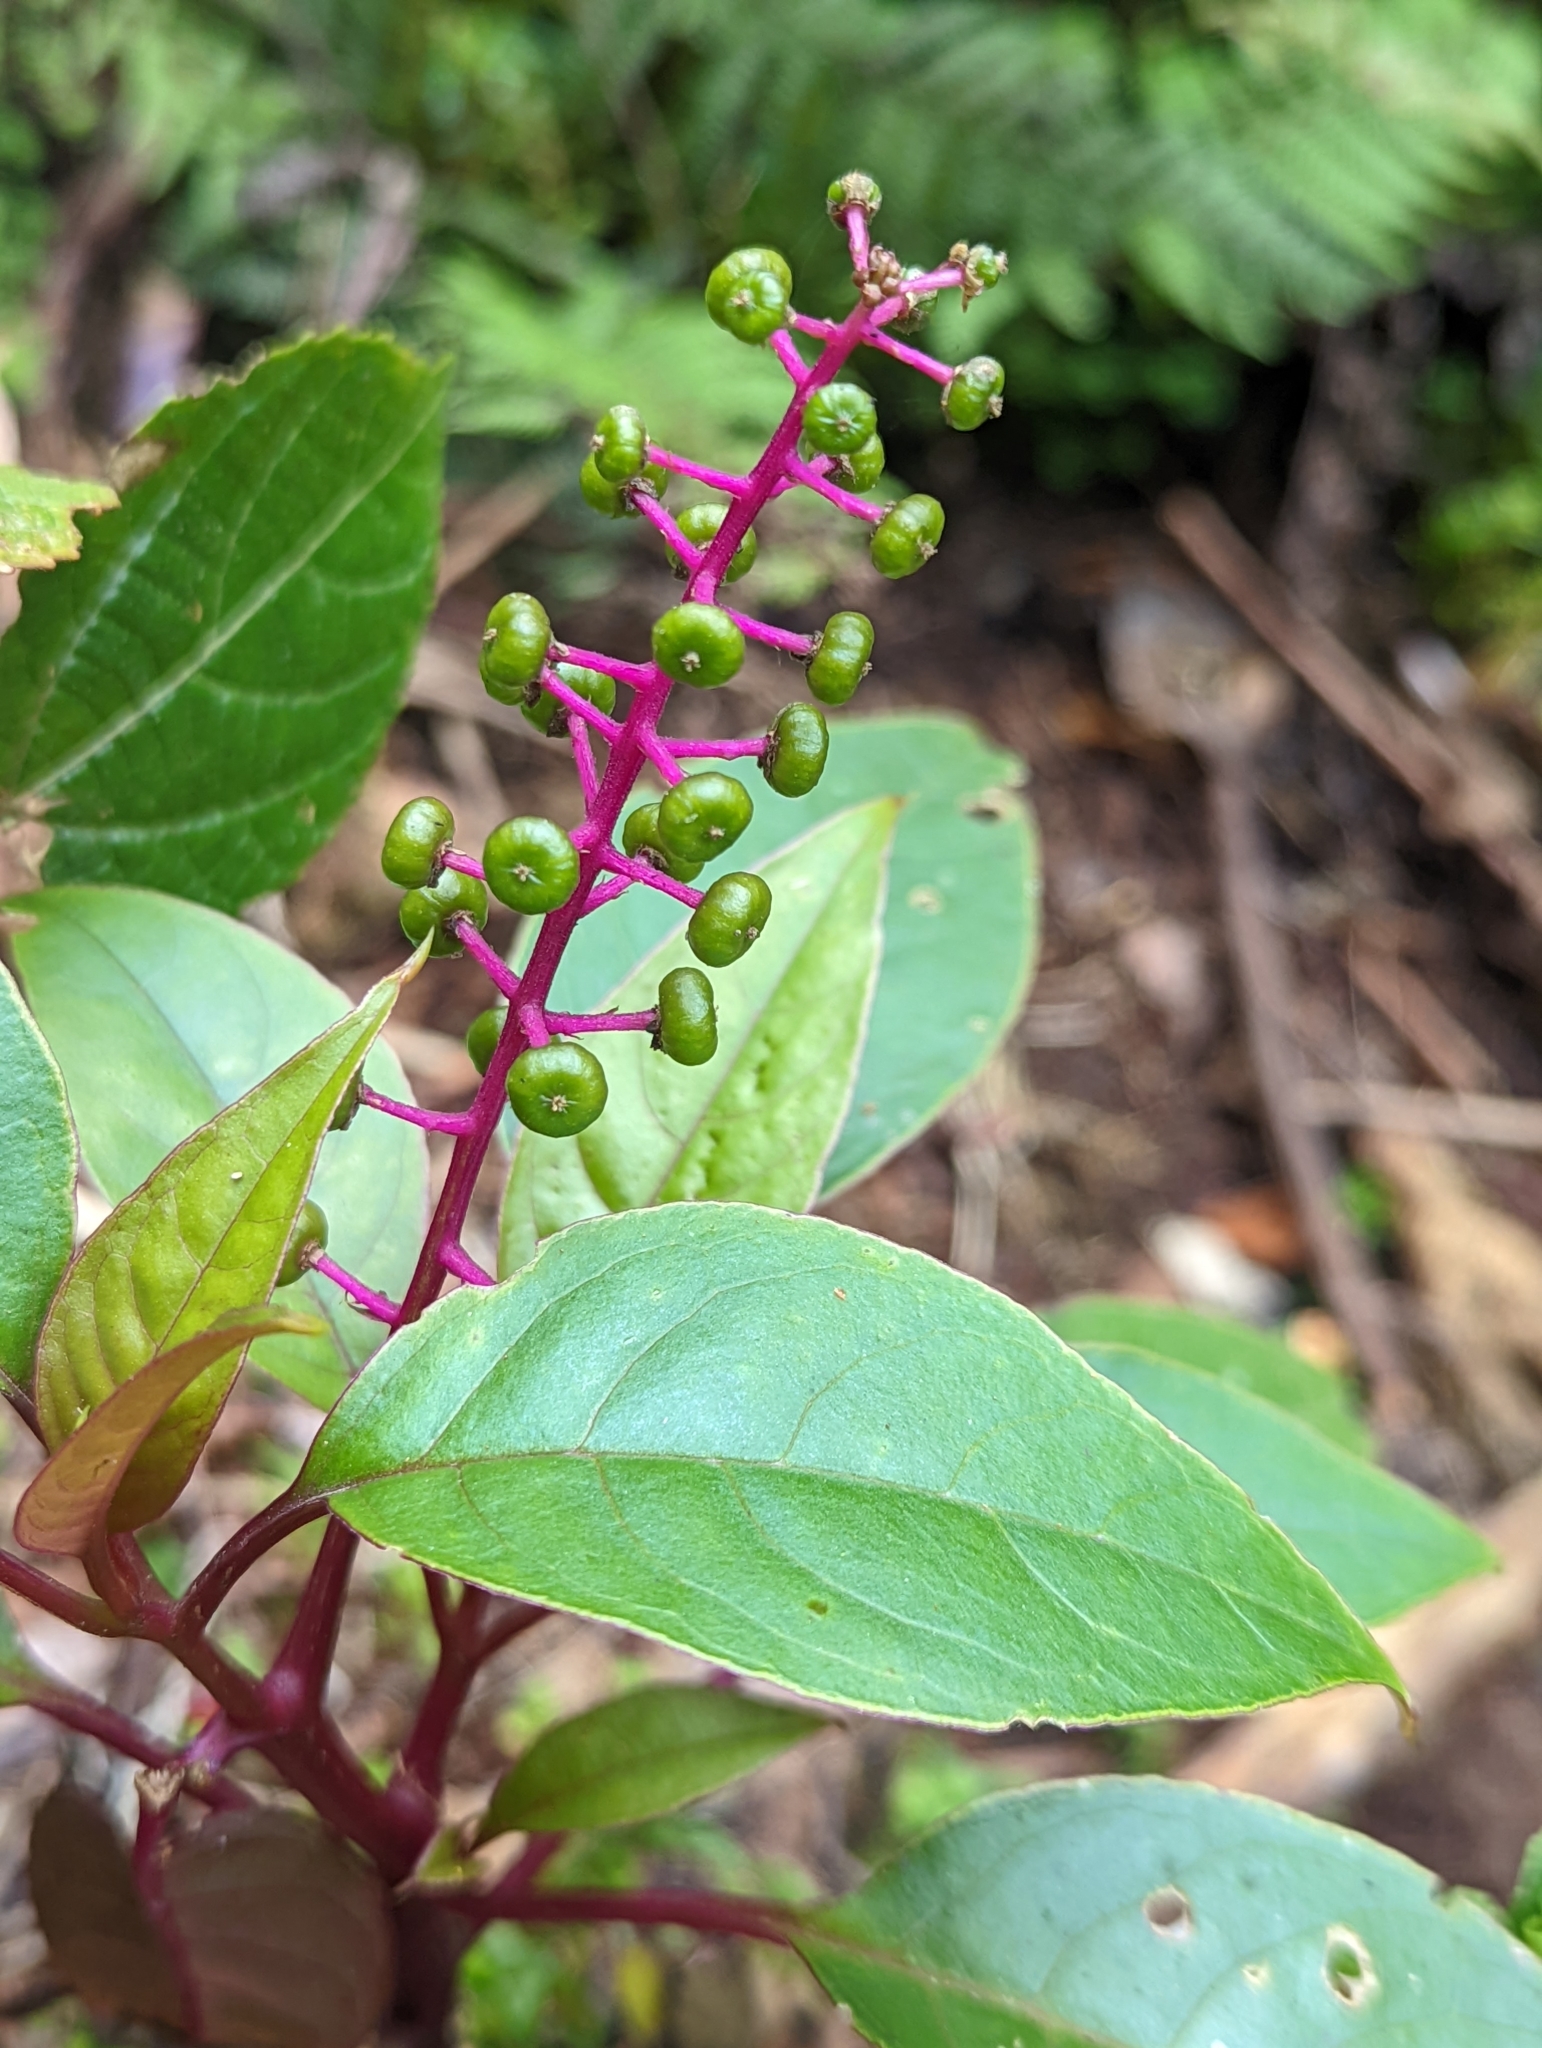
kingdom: Plantae
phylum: Tracheophyta
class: Magnoliopsida
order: Caryophyllales
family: Phytolaccaceae
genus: Phytolacca
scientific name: Phytolacca rivinoides
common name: Venezuelan pokeweed
